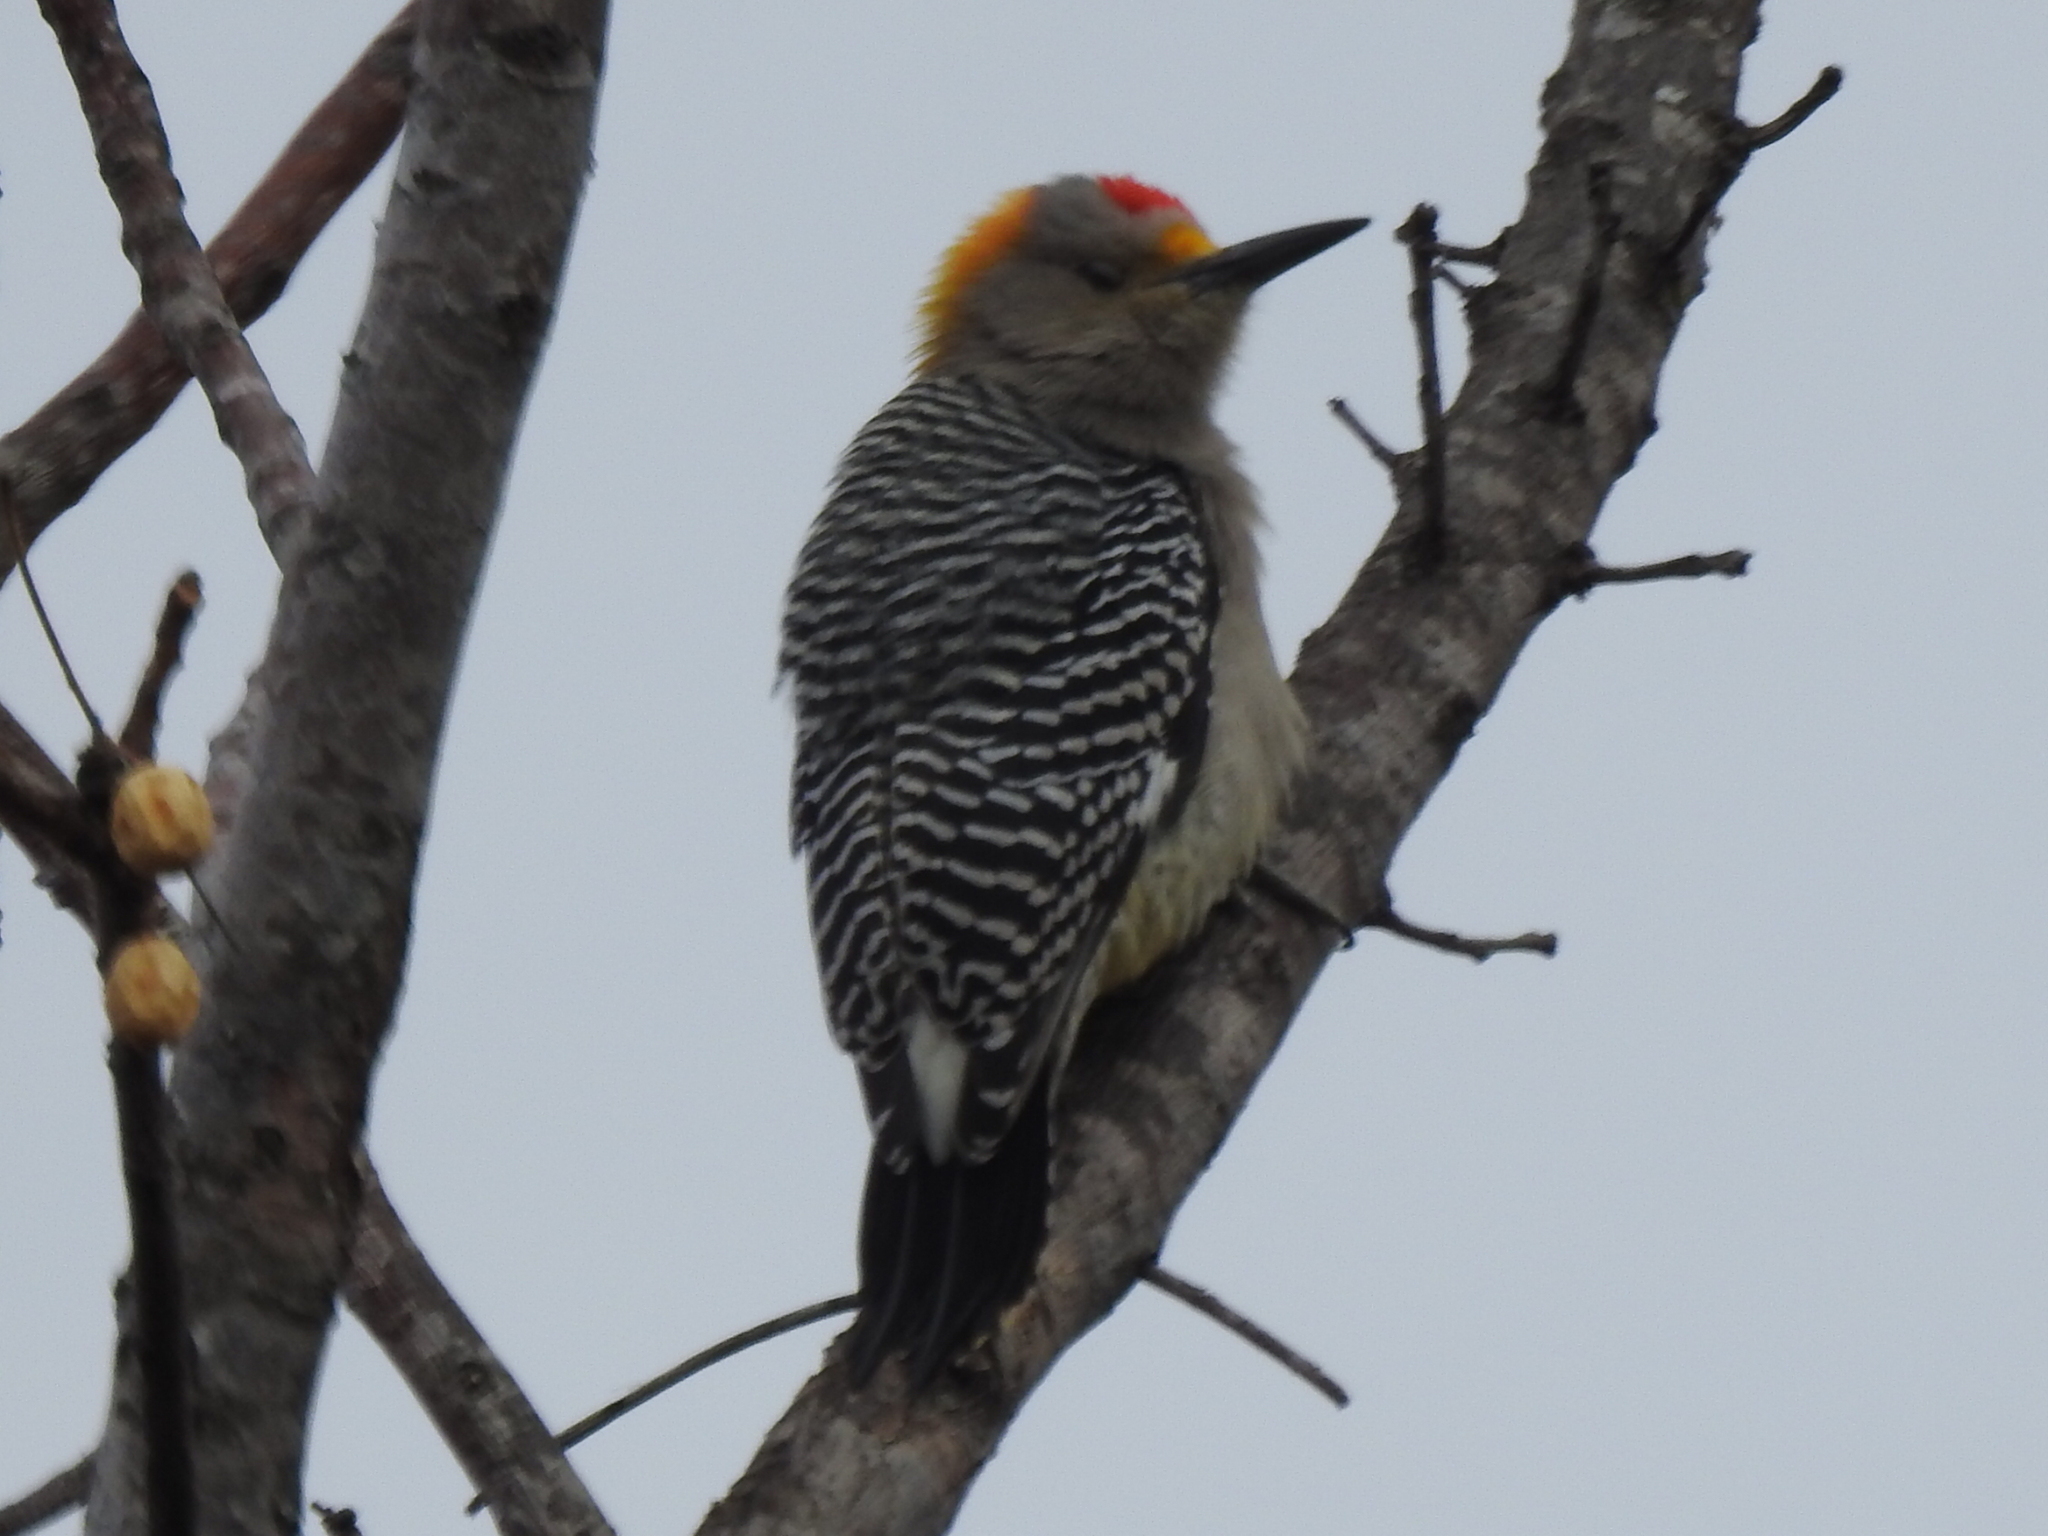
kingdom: Animalia
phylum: Chordata
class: Aves
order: Piciformes
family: Picidae
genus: Melanerpes
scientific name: Melanerpes aurifrons
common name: Golden-fronted woodpecker
